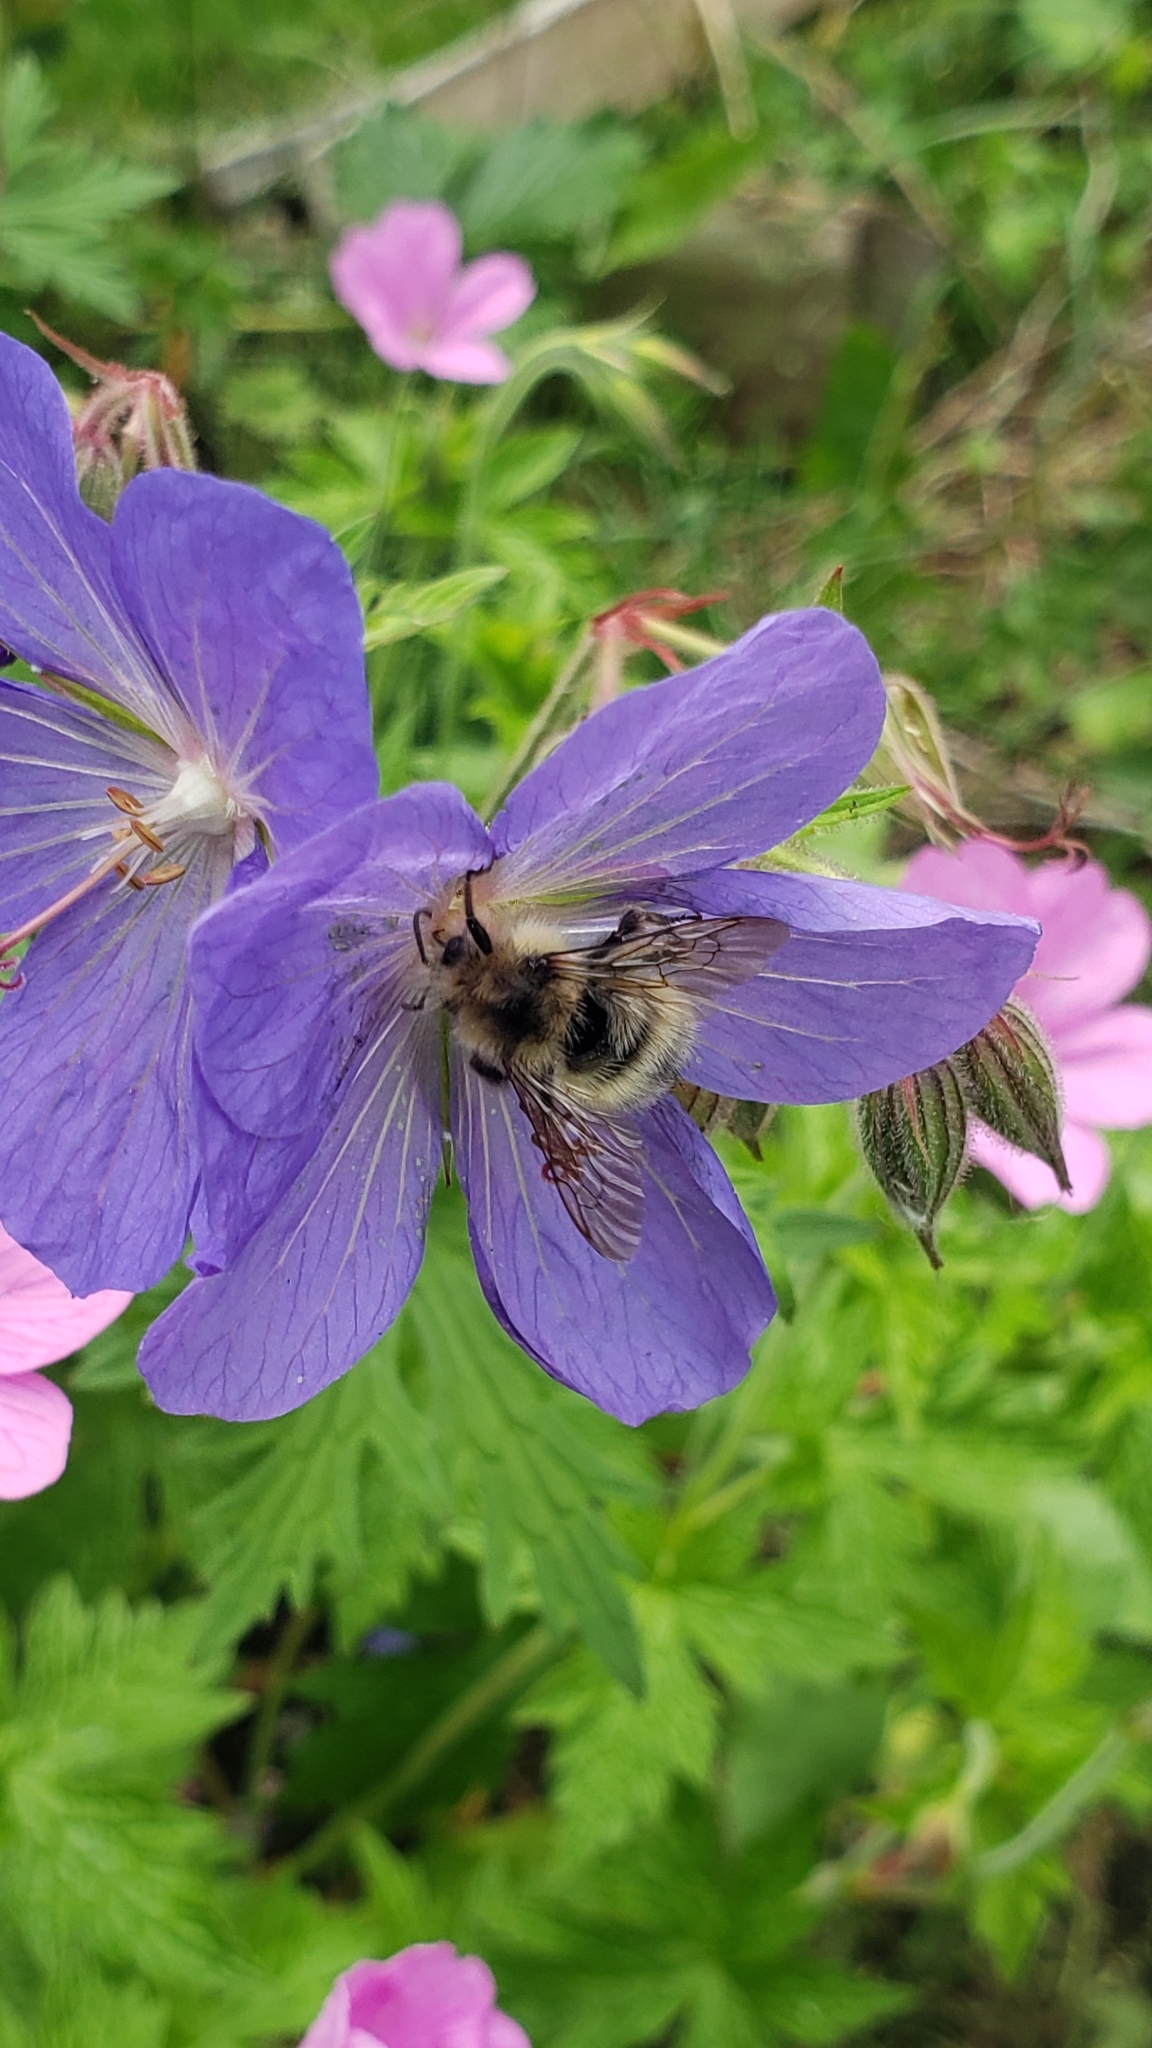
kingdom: Animalia
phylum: Arthropoda
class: Insecta
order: Hymenoptera
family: Apidae
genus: Bombus
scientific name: Bombus flavifrons
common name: Yellow head bumble bee
